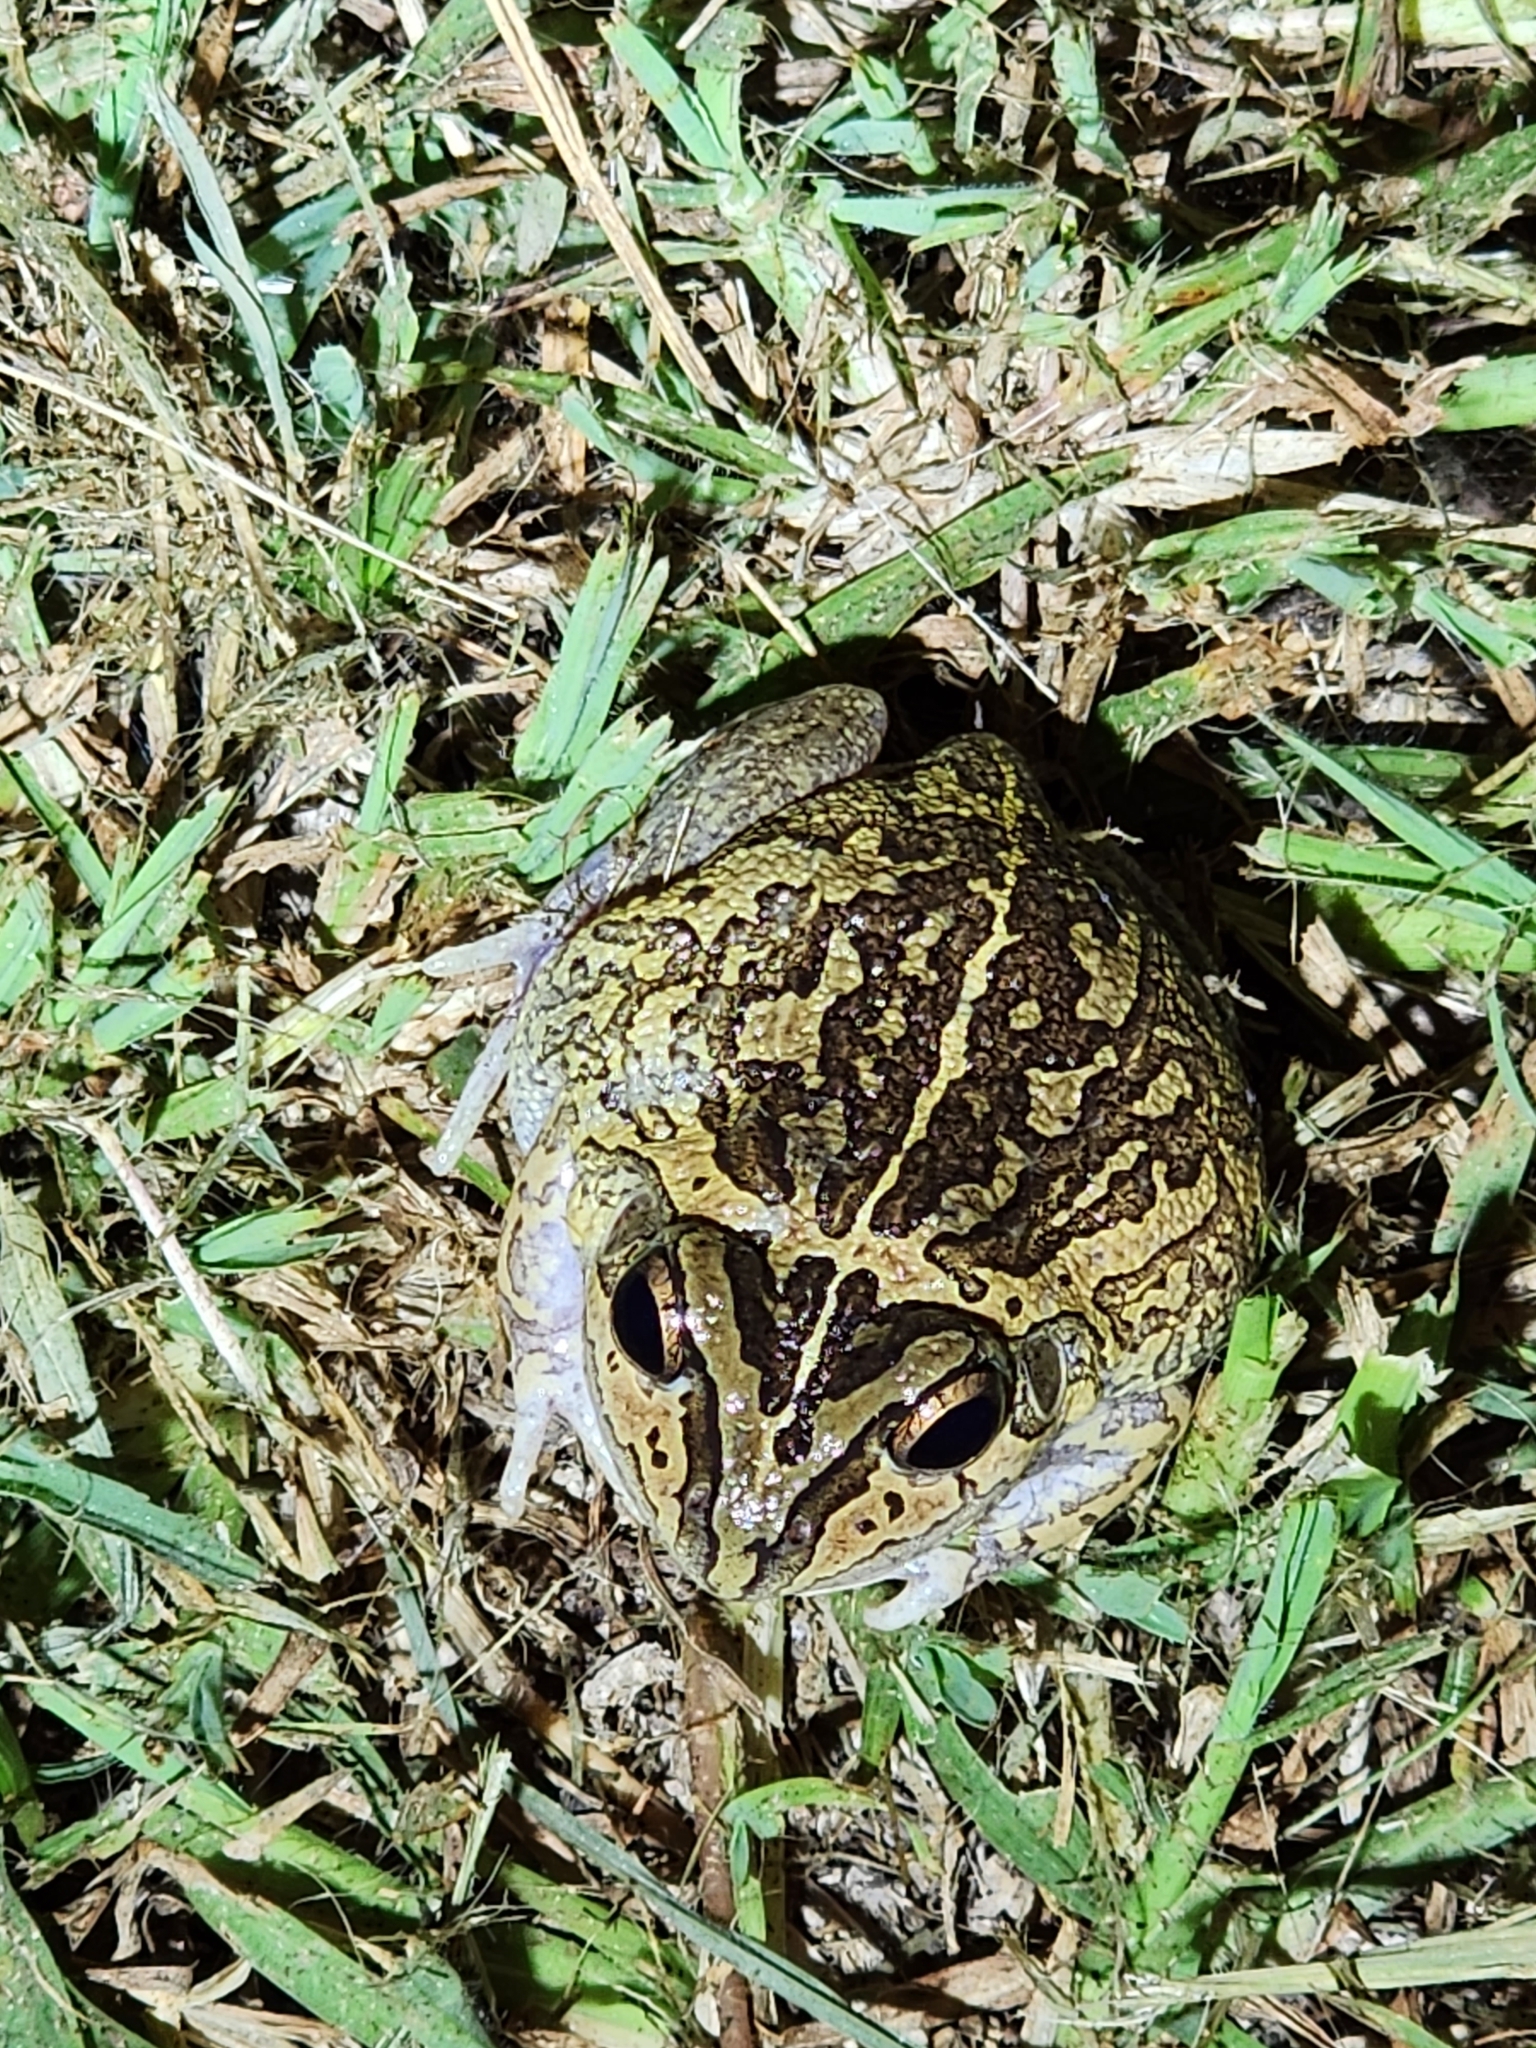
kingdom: Animalia
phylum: Chordata
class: Amphibia
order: Anura
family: Pelodryadidae
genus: Ranoidea
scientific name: Ranoidea brevipes
